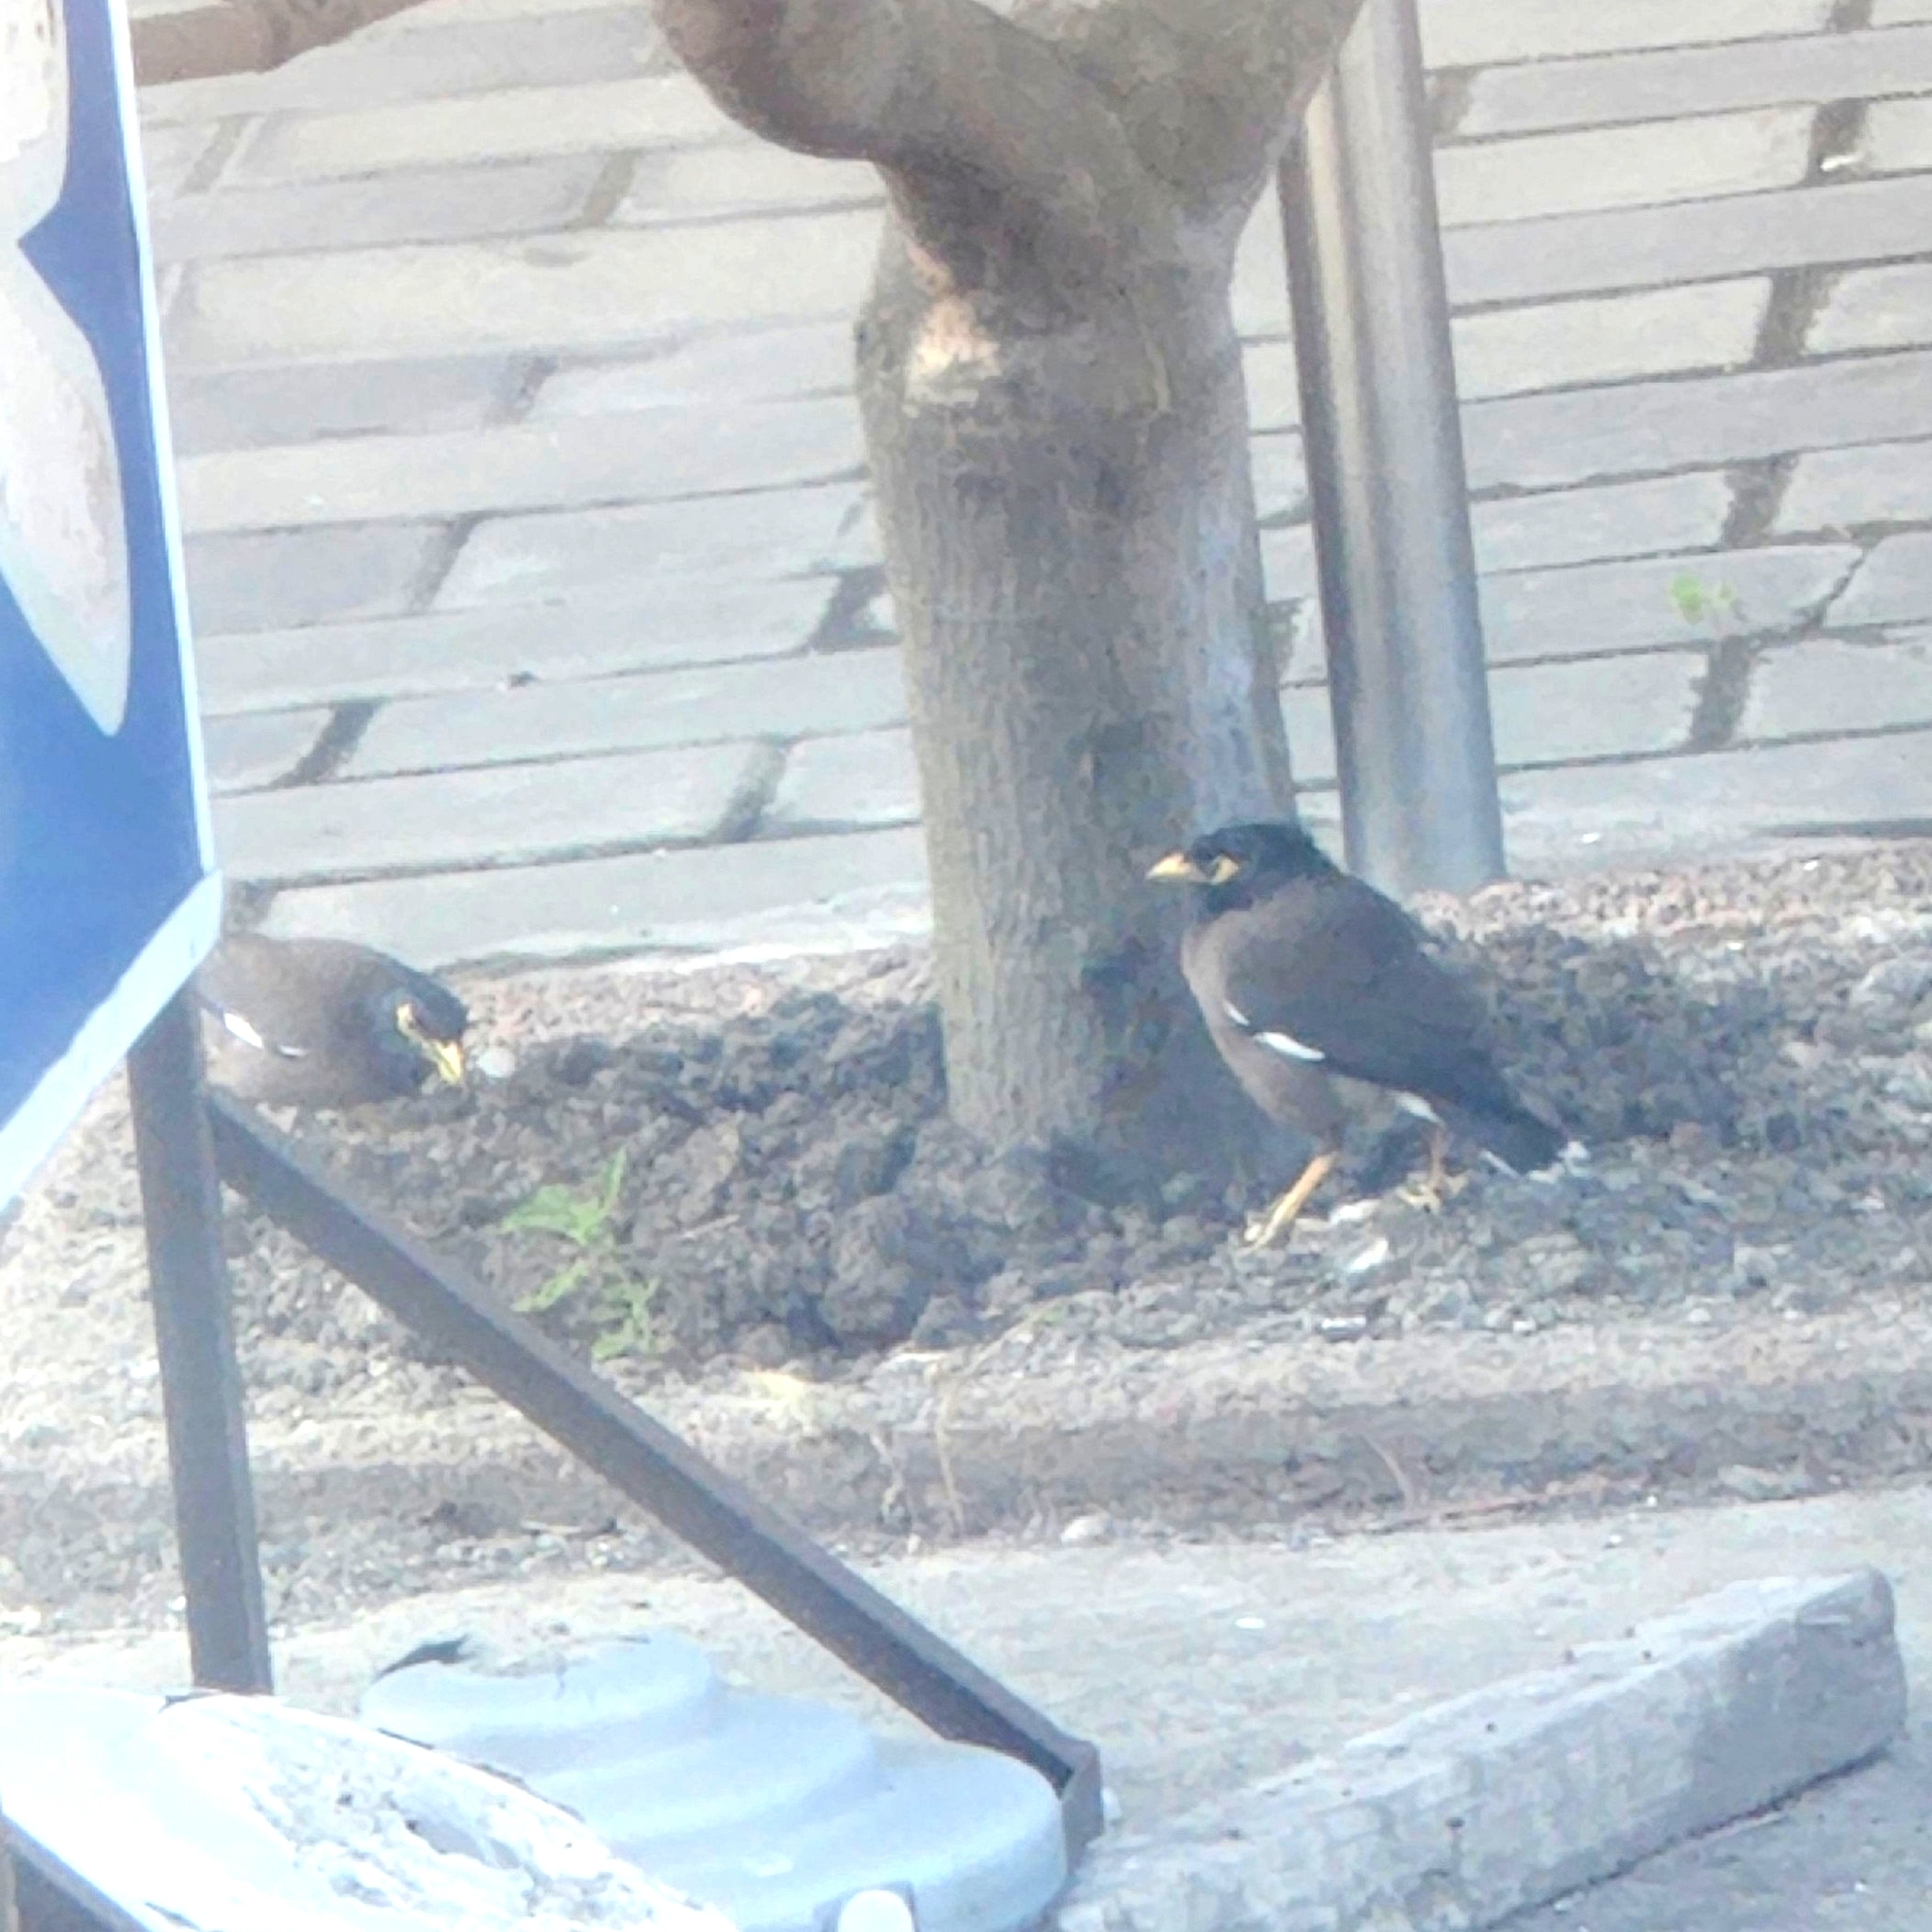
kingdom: Animalia
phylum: Chordata
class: Aves
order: Passeriformes
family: Sturnidae
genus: Acridotheres
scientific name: Acridotheres tristis
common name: Common myna
